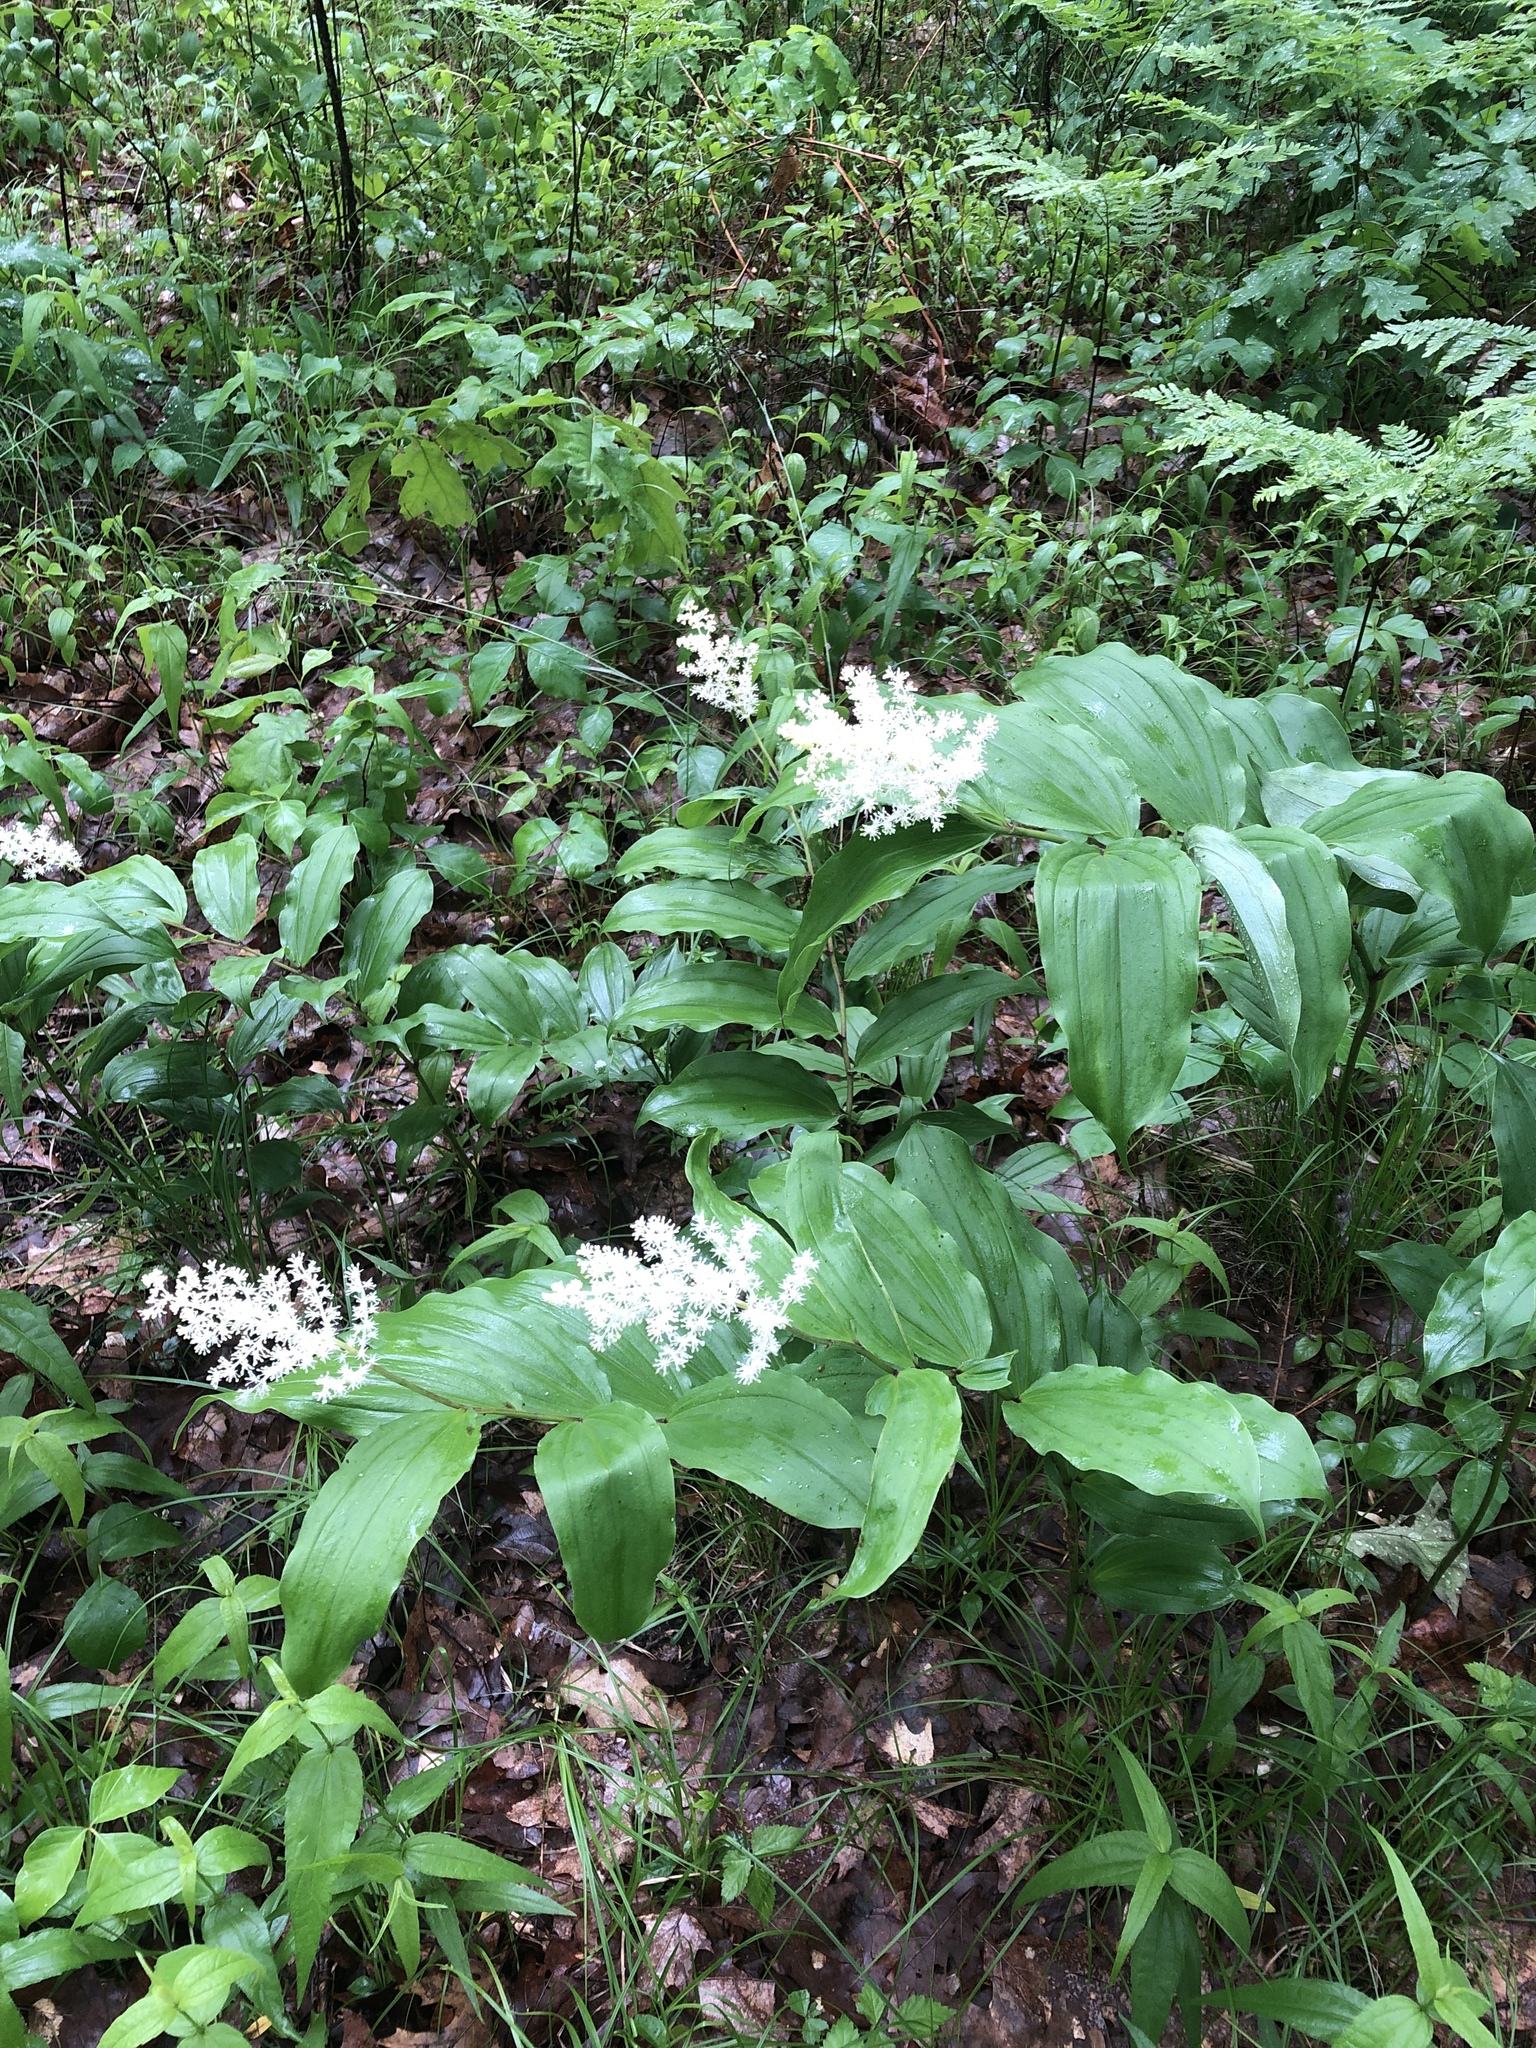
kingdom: Plantae
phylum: Tracheophyta
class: Liliopsida
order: Asparagales
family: Asparagaceae
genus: Maianthemum
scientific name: Maianthemum racemosum
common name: False spikenard
